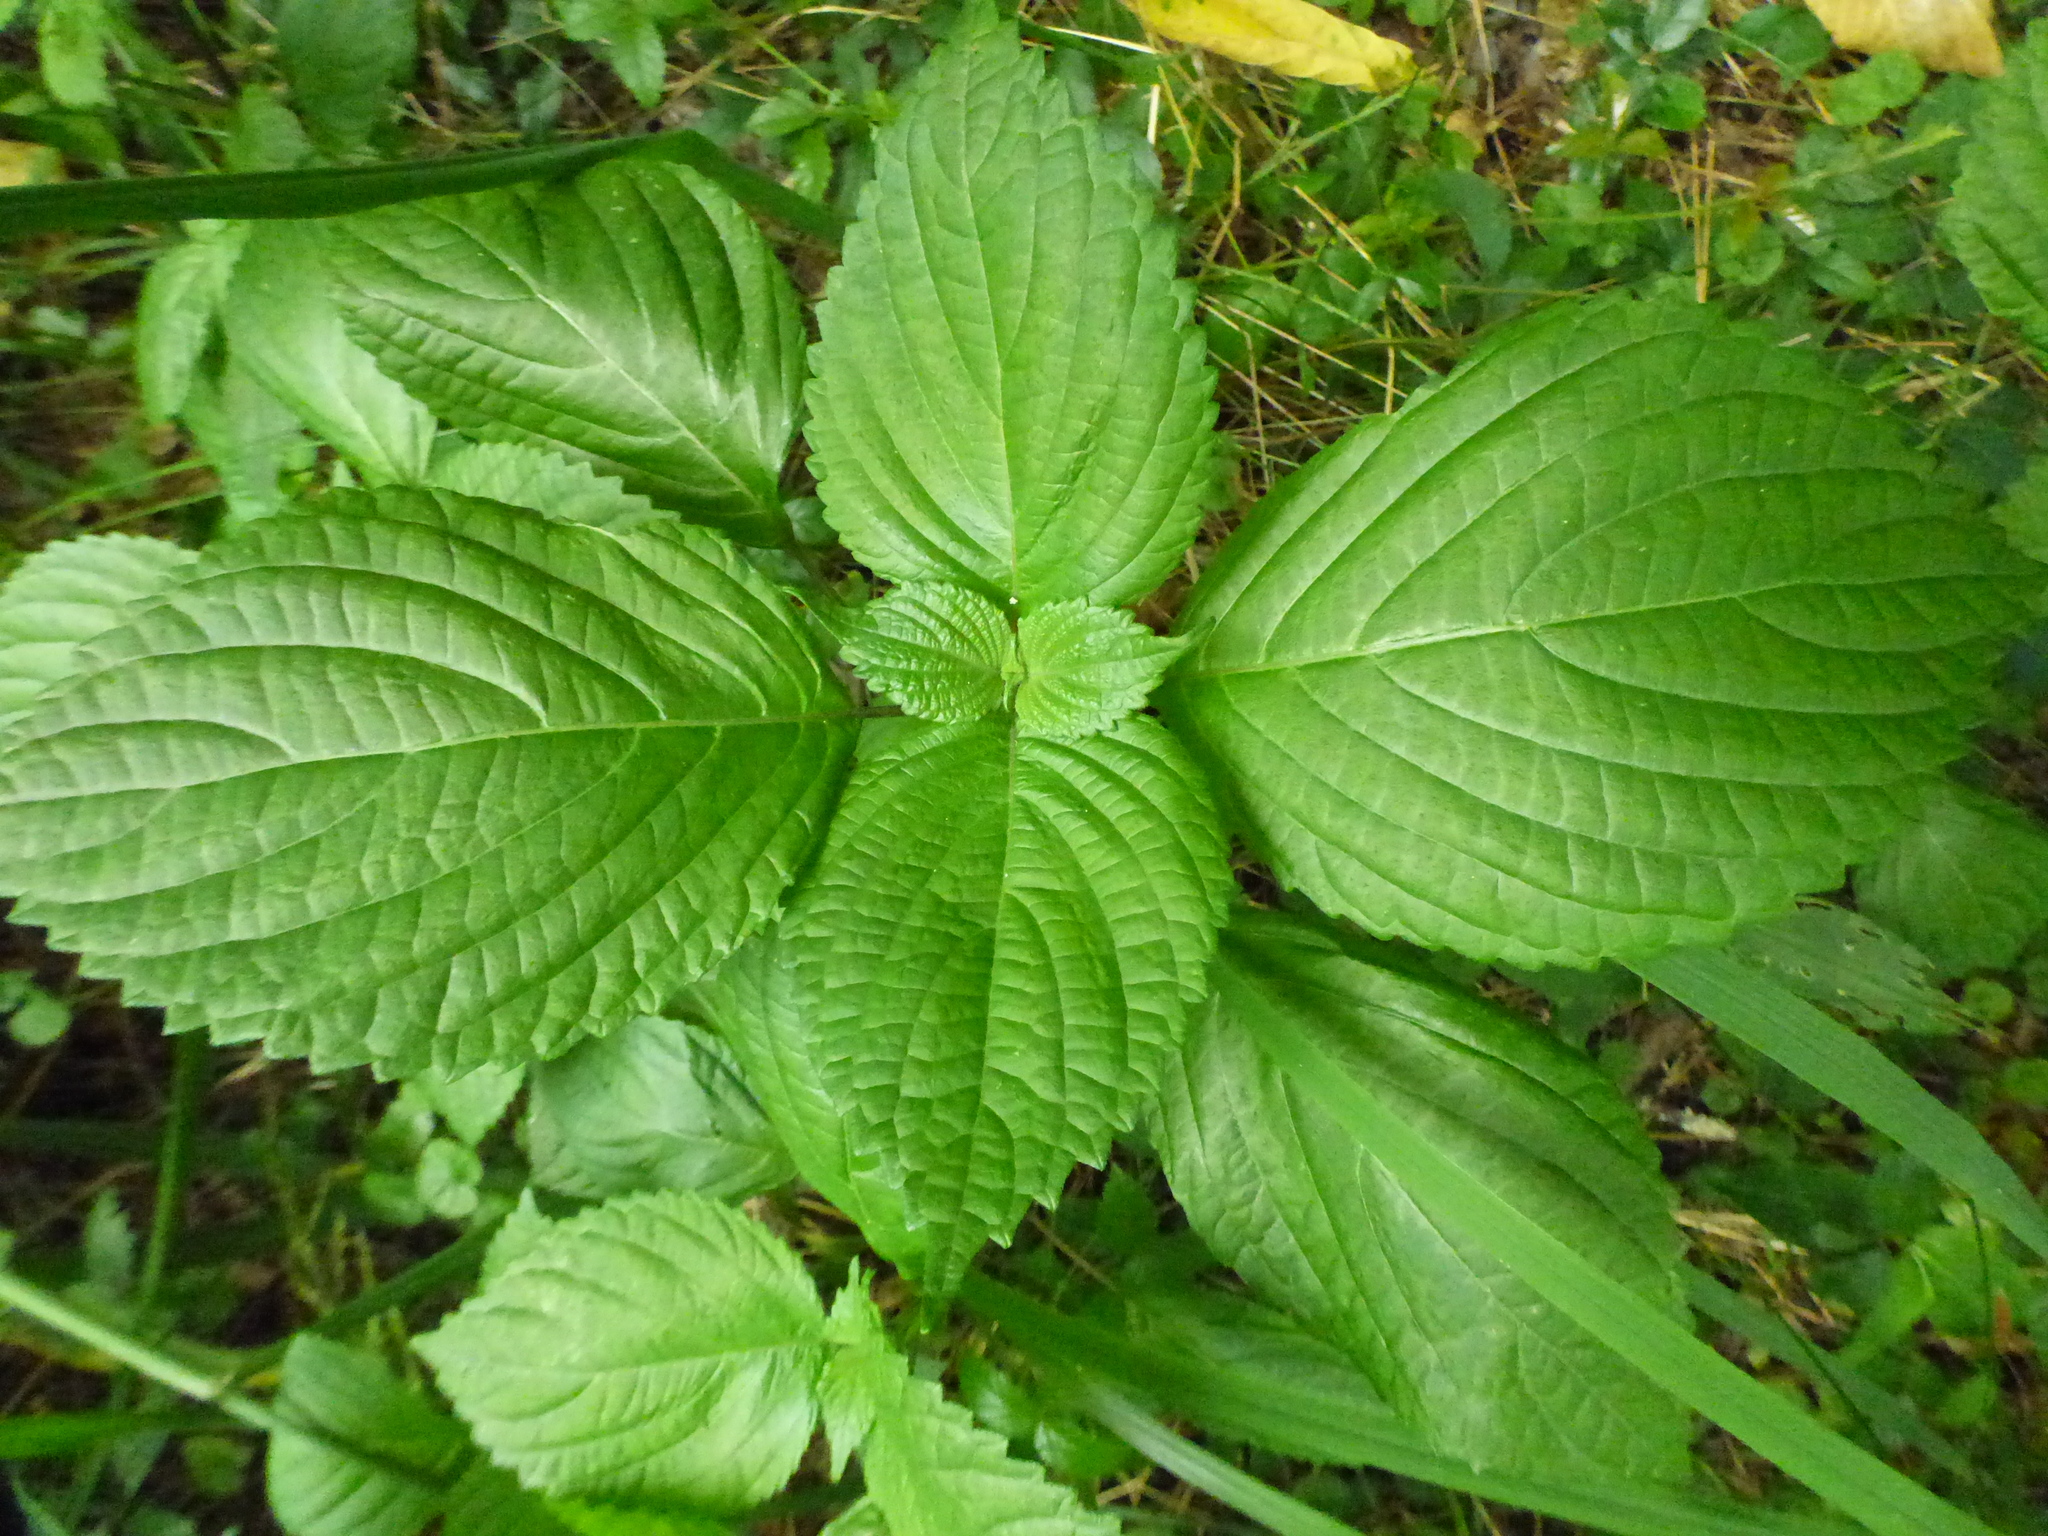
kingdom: Plantae
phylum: Tracheophyta
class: Magnoliopsida
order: Lamiales
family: Lamiaceae
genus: Perilla
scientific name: Perilla frutescens
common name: Perilla
